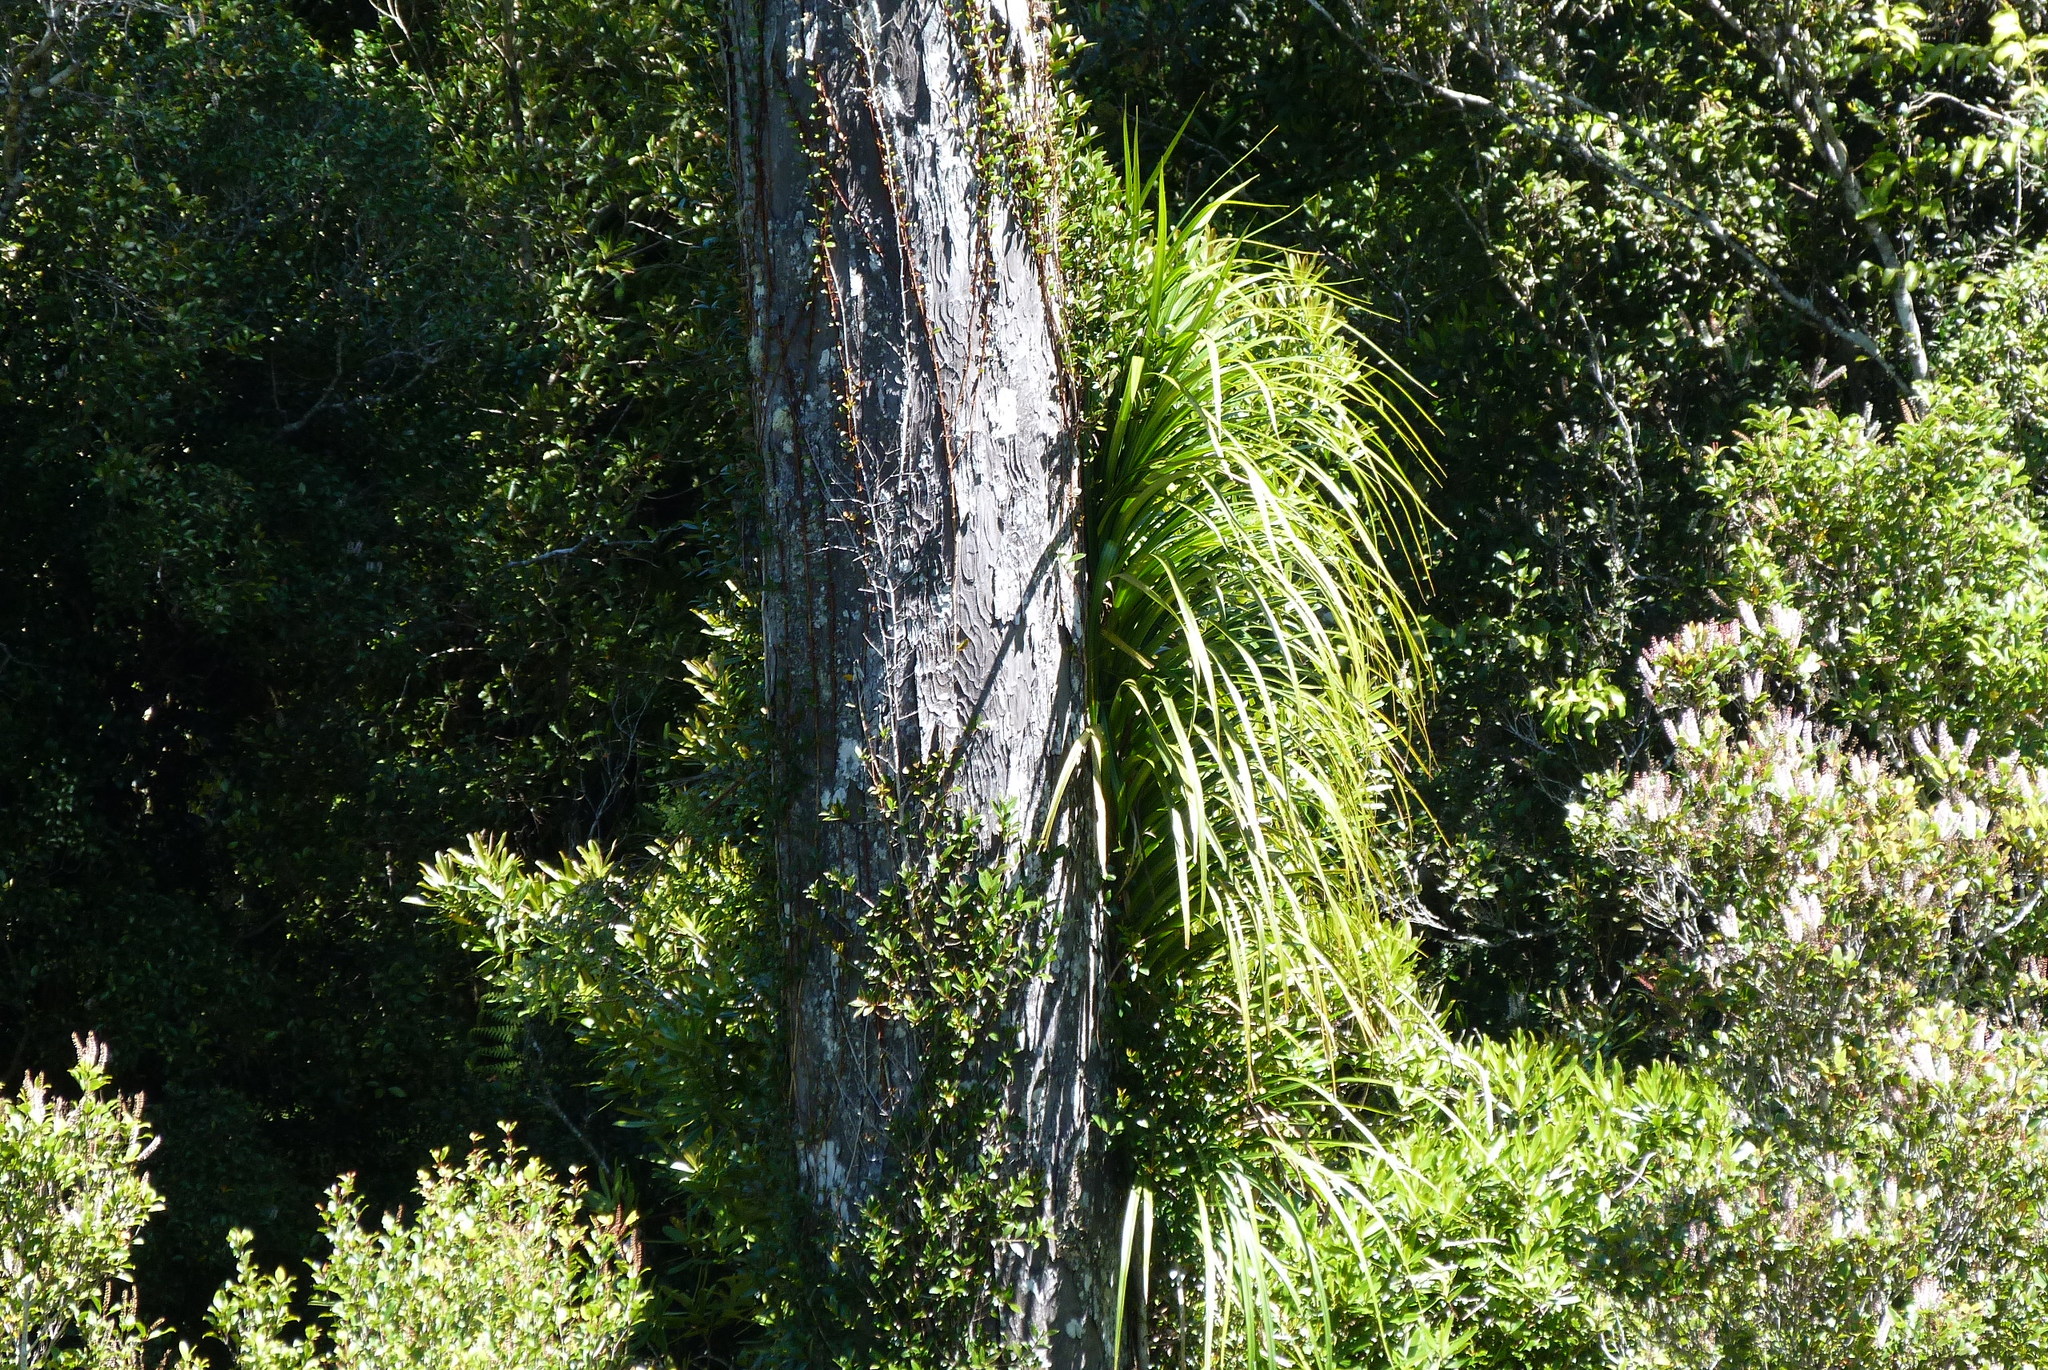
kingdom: Plantae
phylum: Tracheophyta
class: Liliopsida
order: Pandanales
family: Pandanaceae
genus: Freycinetia
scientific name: Freycinetia banksii
